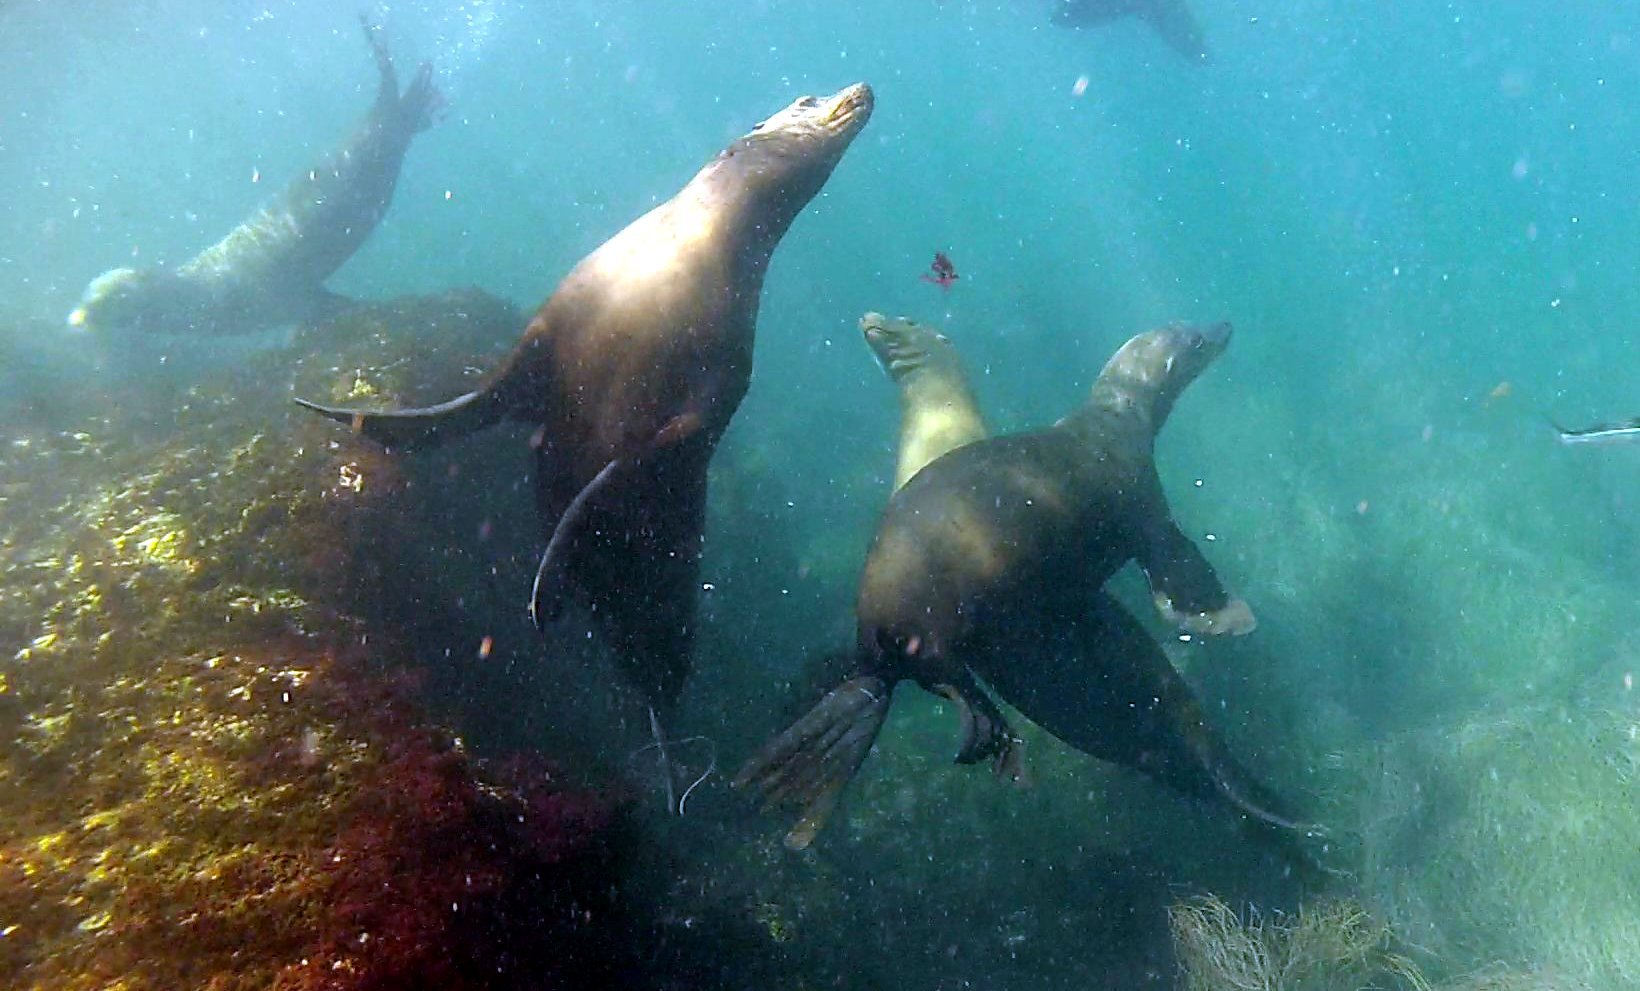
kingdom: Animalia
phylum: Chordata
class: Mammalia
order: Carnivora
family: Otariidae
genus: Zalophus
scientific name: Zalophus californianus
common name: California sea lion
